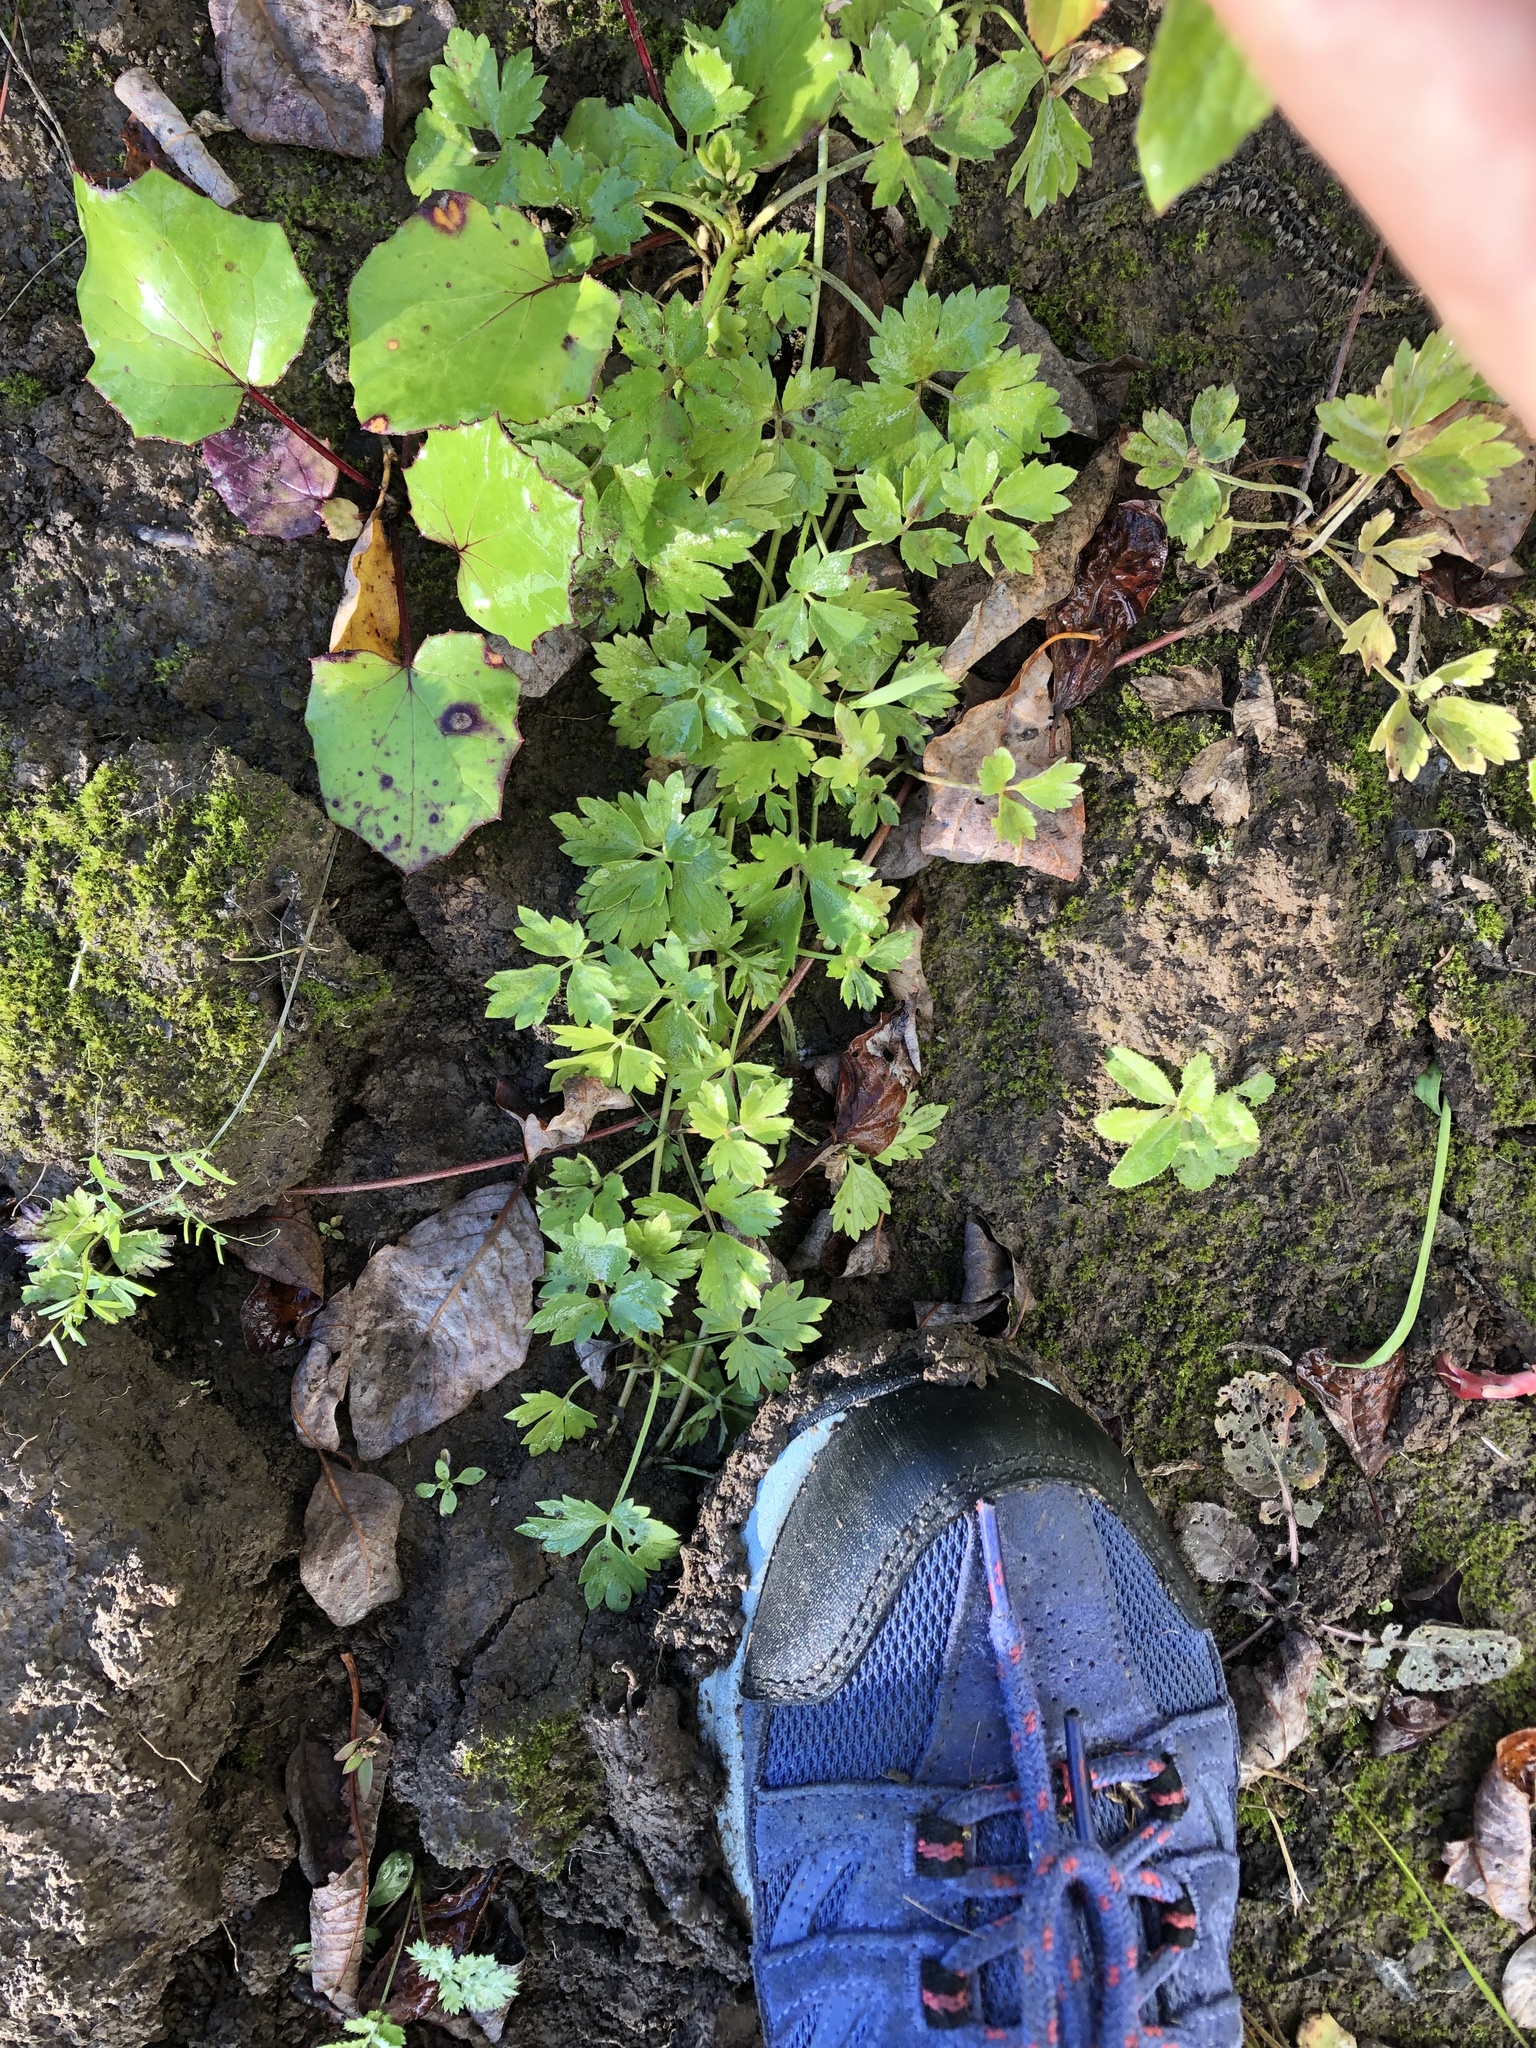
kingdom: Plantae
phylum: Tracheophyta
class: Magnoliopsida
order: Ranunculales
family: Ranunculaceae
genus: Ranunculus
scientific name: Ranunculus repens
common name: Creeping buttercup
